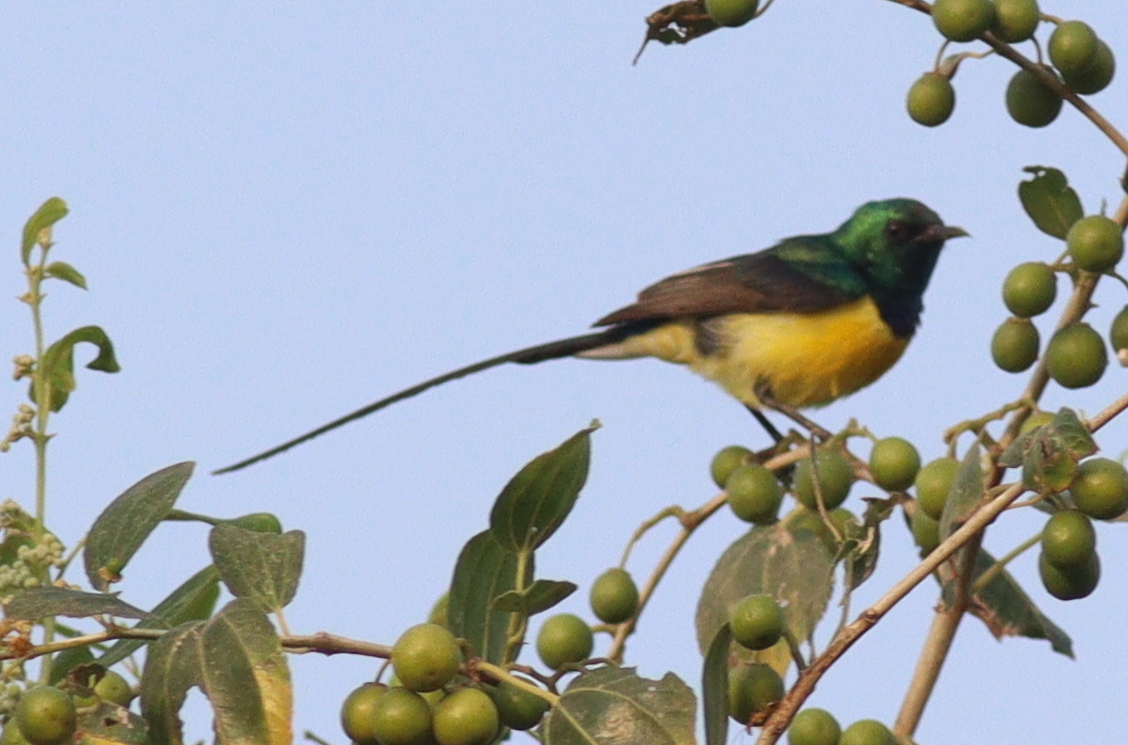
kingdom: Animalia
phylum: Chordata
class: Aves
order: Passeriformes
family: Nectariniidae
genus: Hedydipna
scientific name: Hedydipna metallica
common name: Nile valley sunbird
